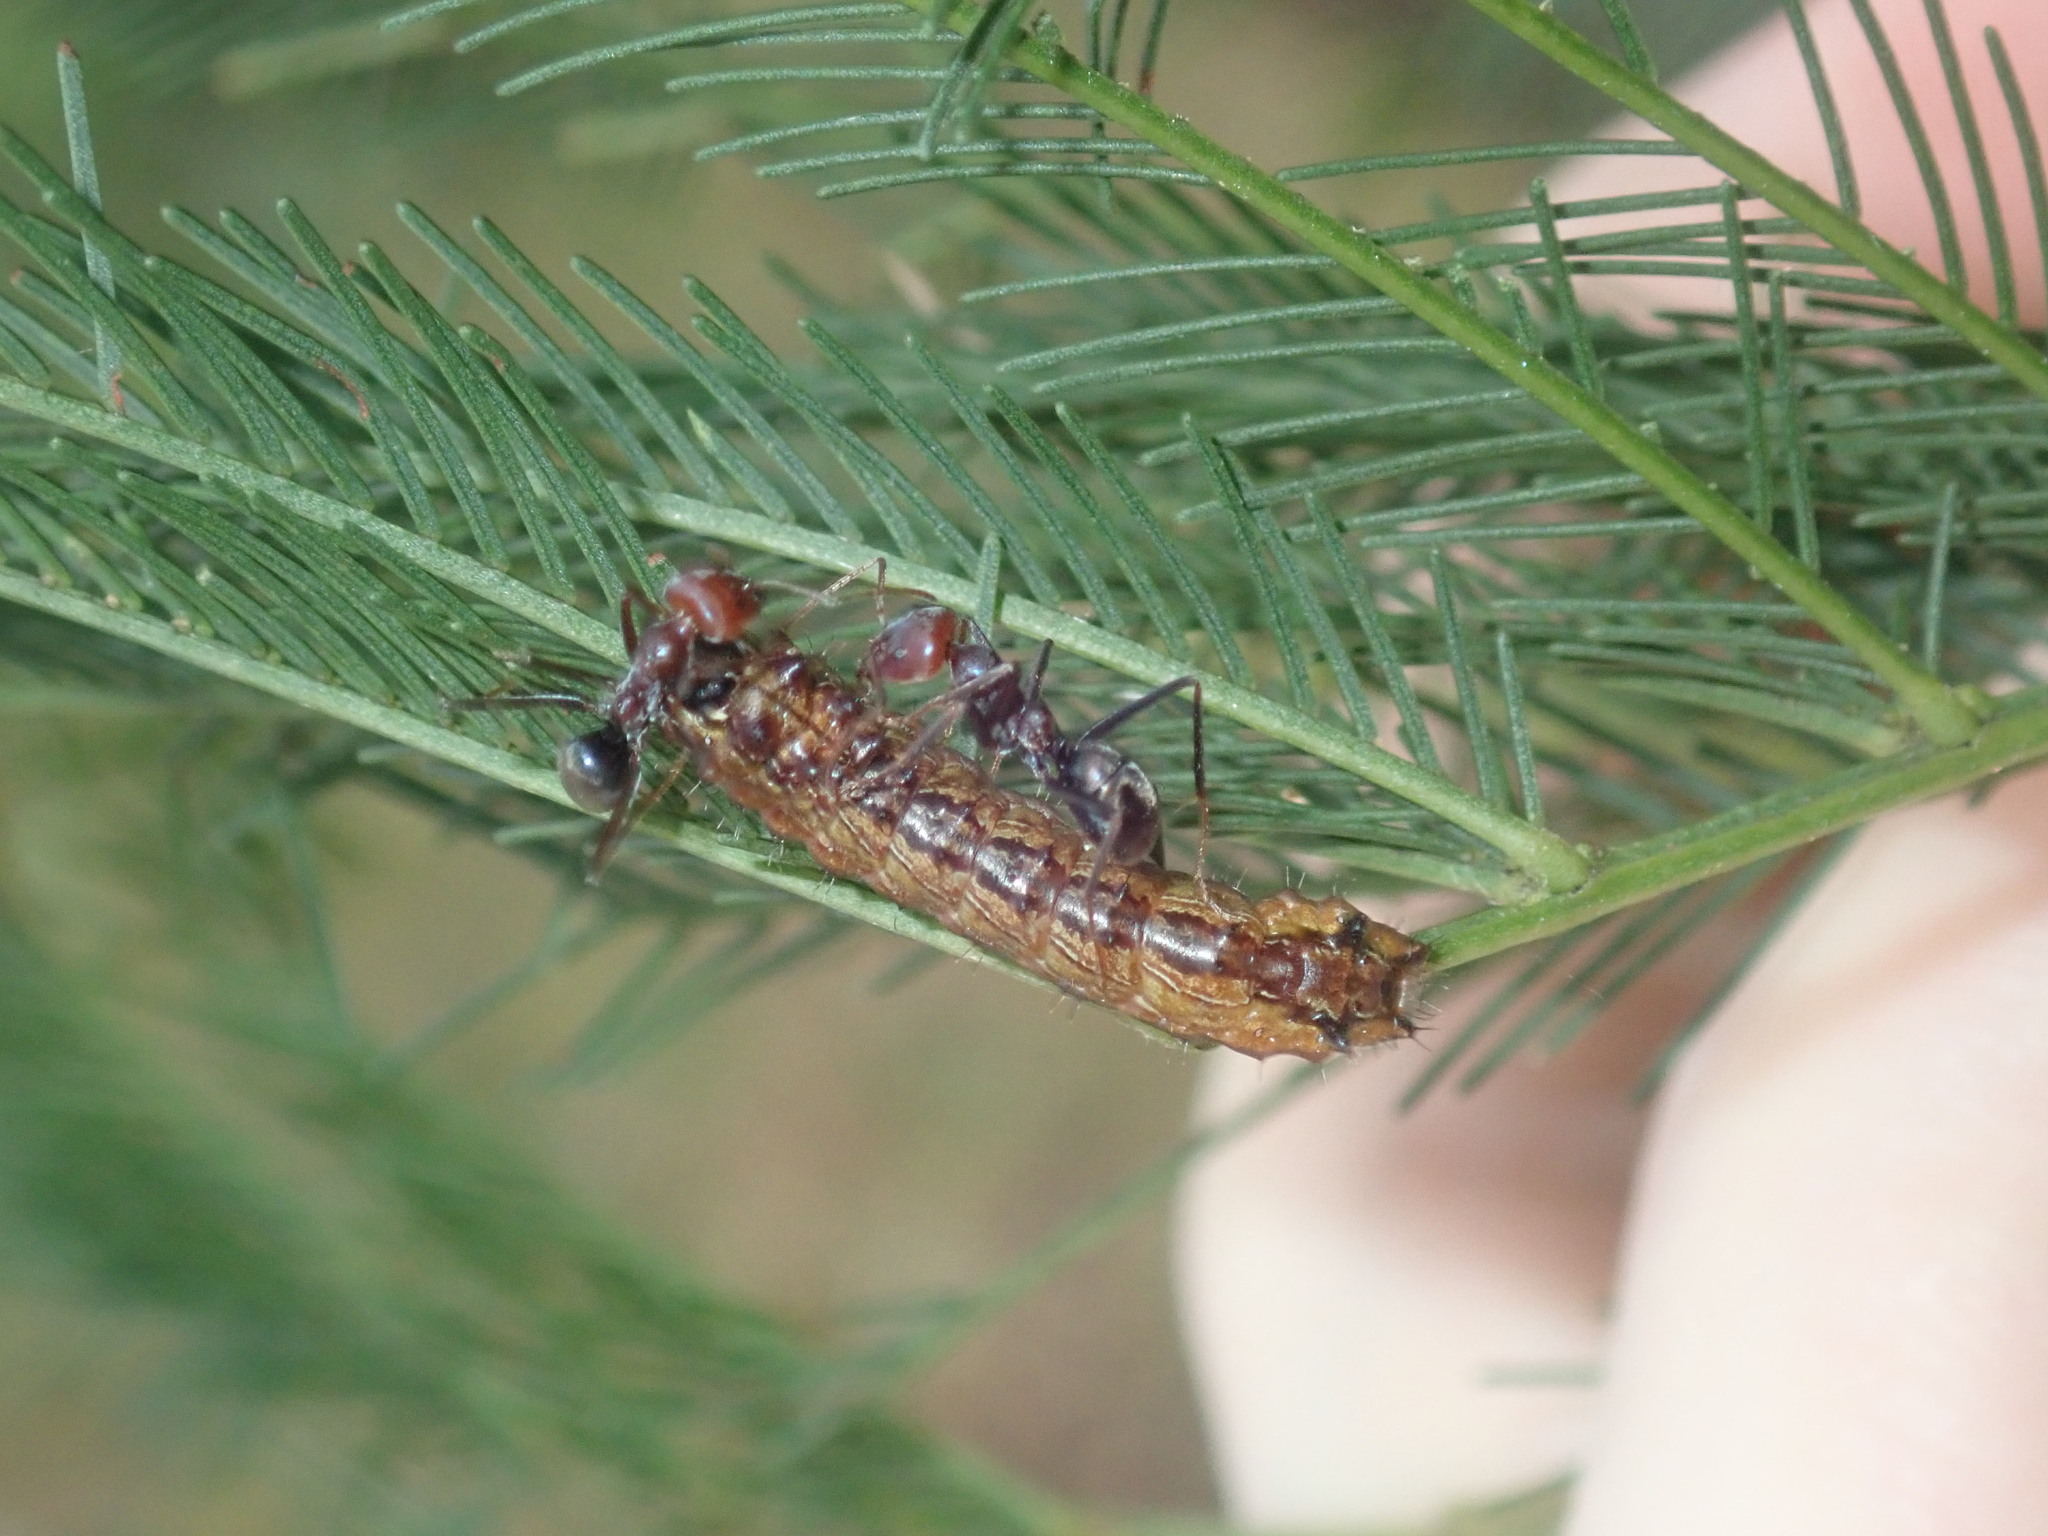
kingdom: Animalia
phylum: Arthropoda
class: Insecta
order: Lepidoptera
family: Lycaenidae
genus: Jalmenus
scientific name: Jalmenus ictinus
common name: Stencilled hairstreak
